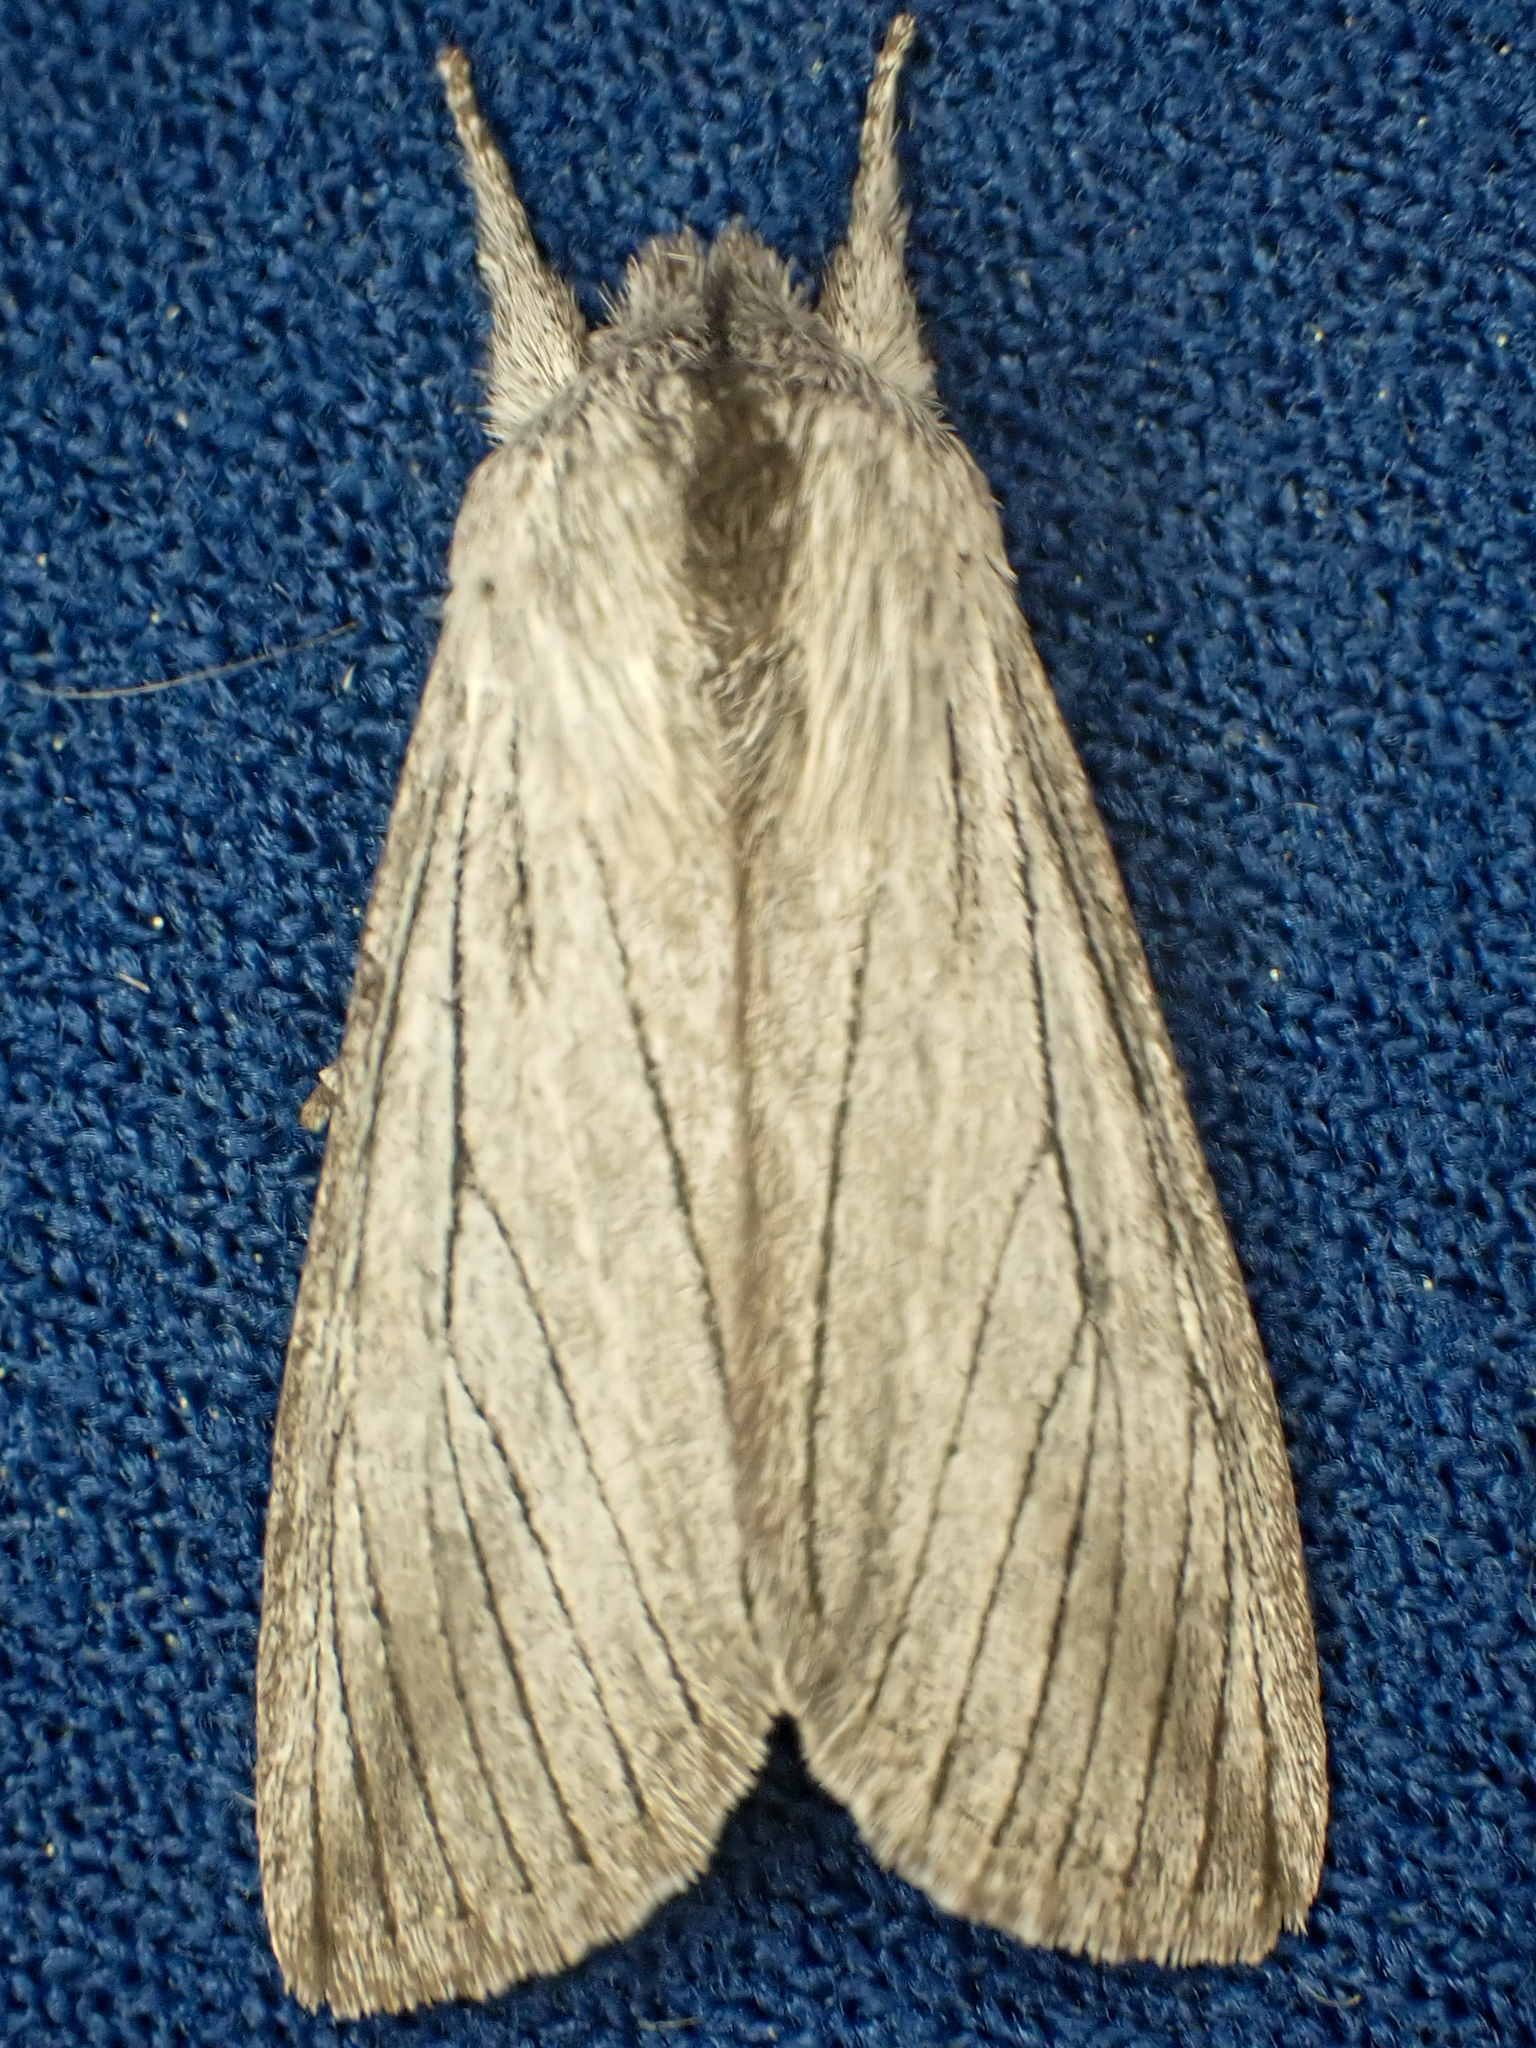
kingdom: Animalia
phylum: Arthropoda
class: Insecta
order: Lepidoptera
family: Noctuidae
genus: Pleromella
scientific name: Pleromella opter
